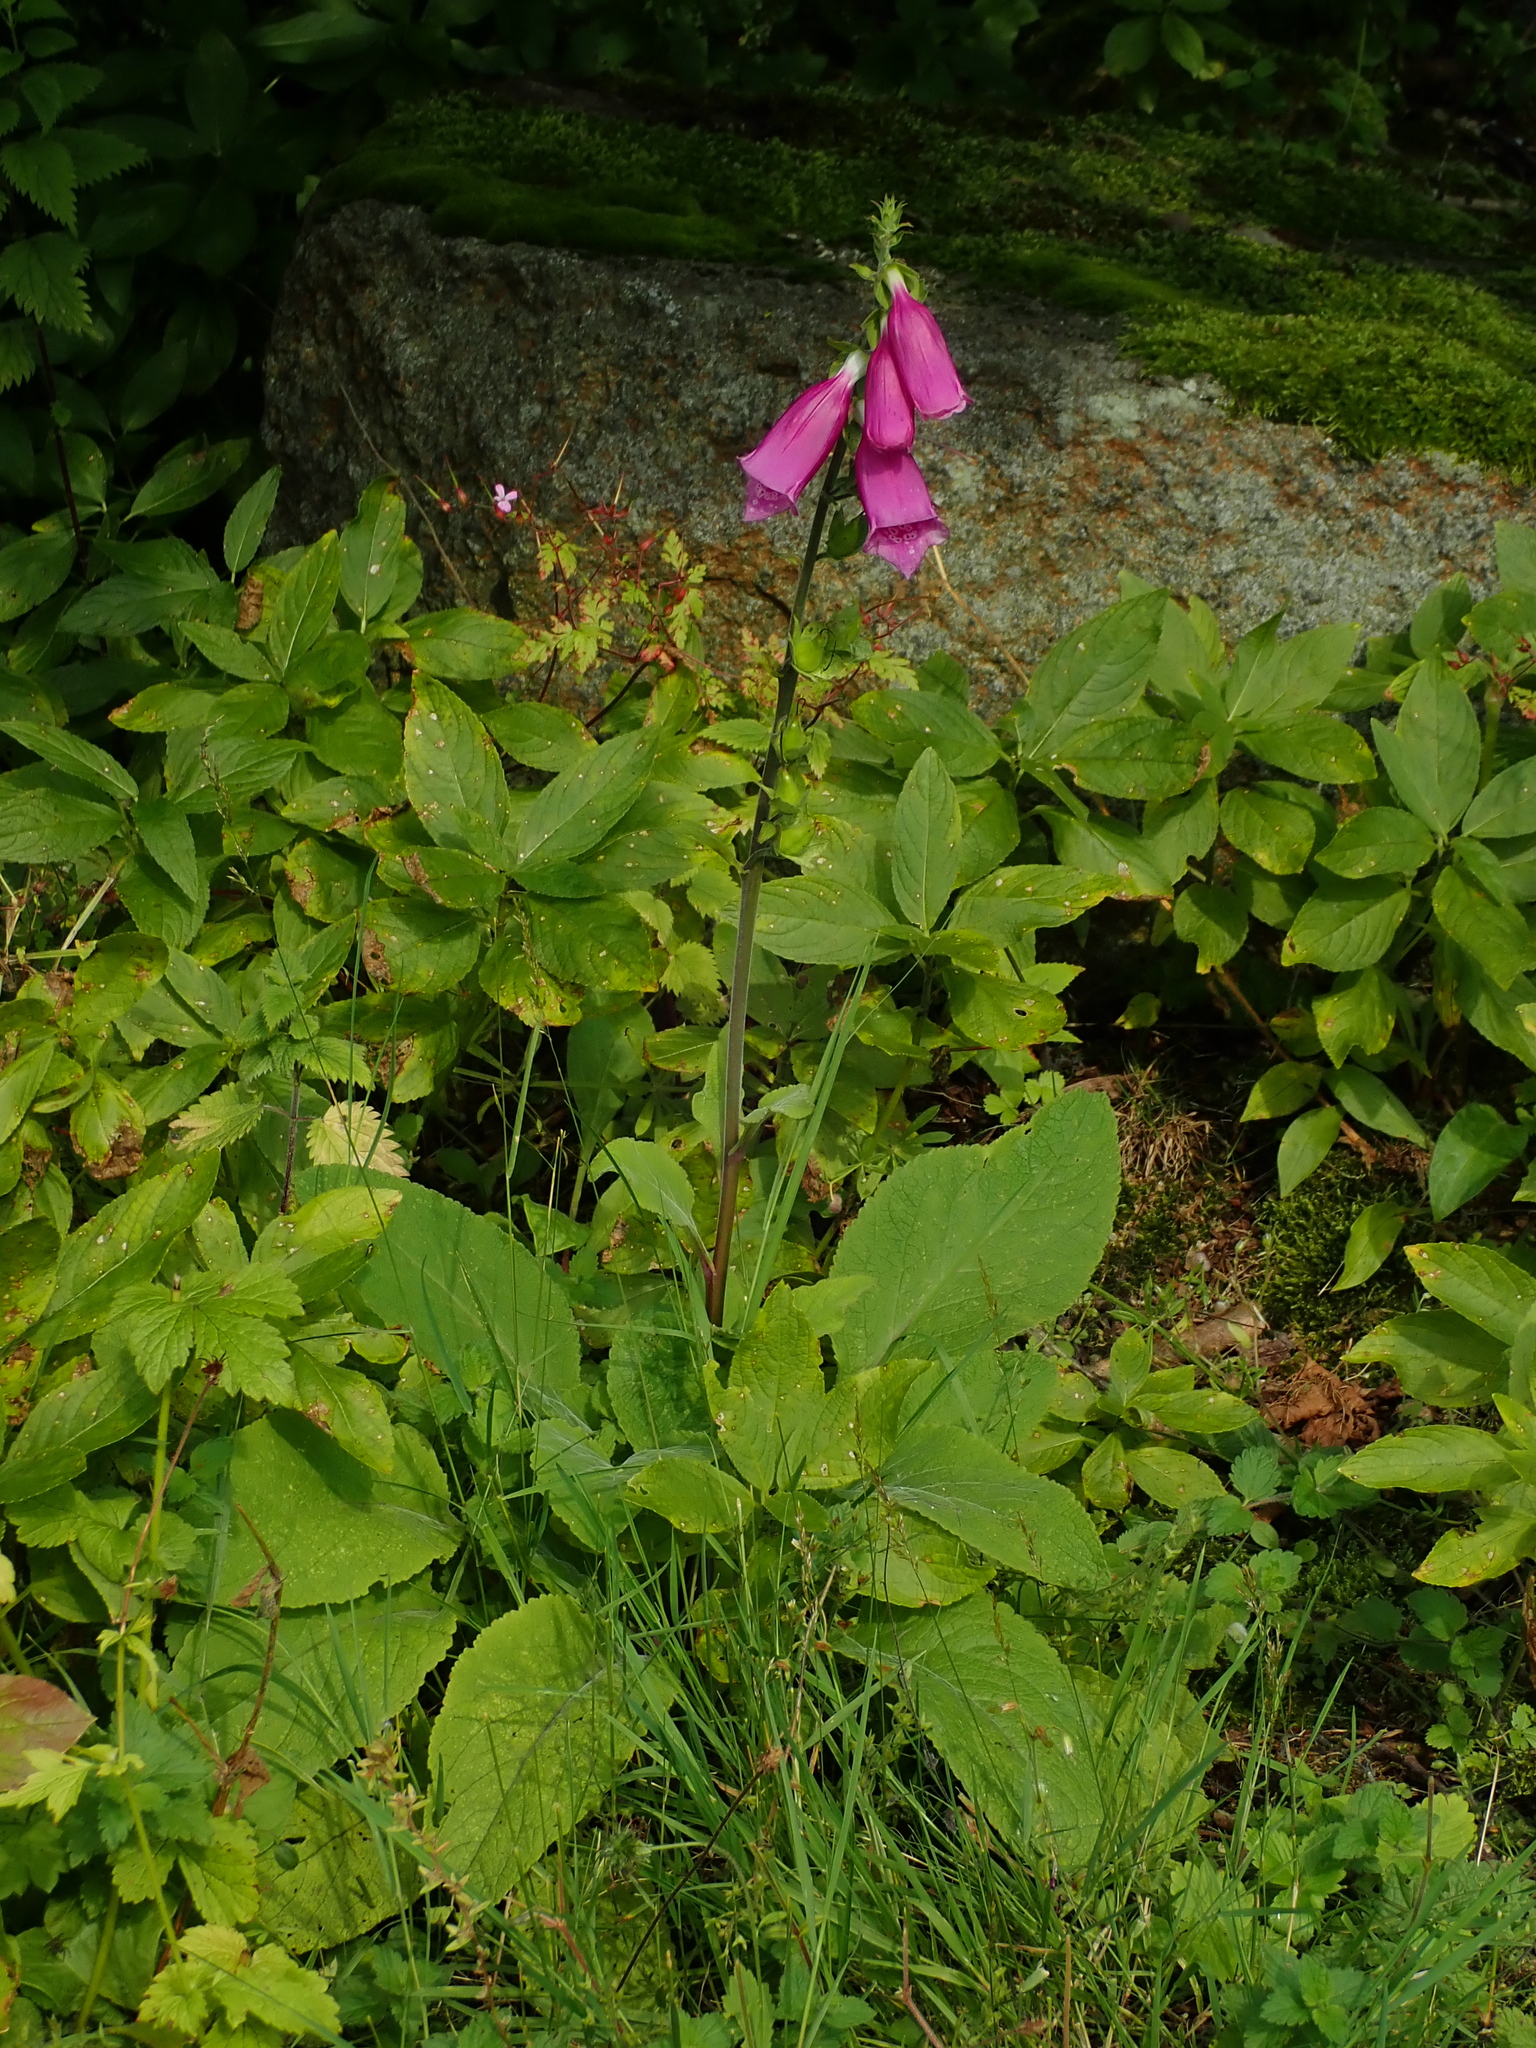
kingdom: Plantae
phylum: Tracheophyta
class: Magnoliopsida
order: Lamiales
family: Plantaginaceae
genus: Digitalis
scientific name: Digitalis purpurea
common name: Foxglove
